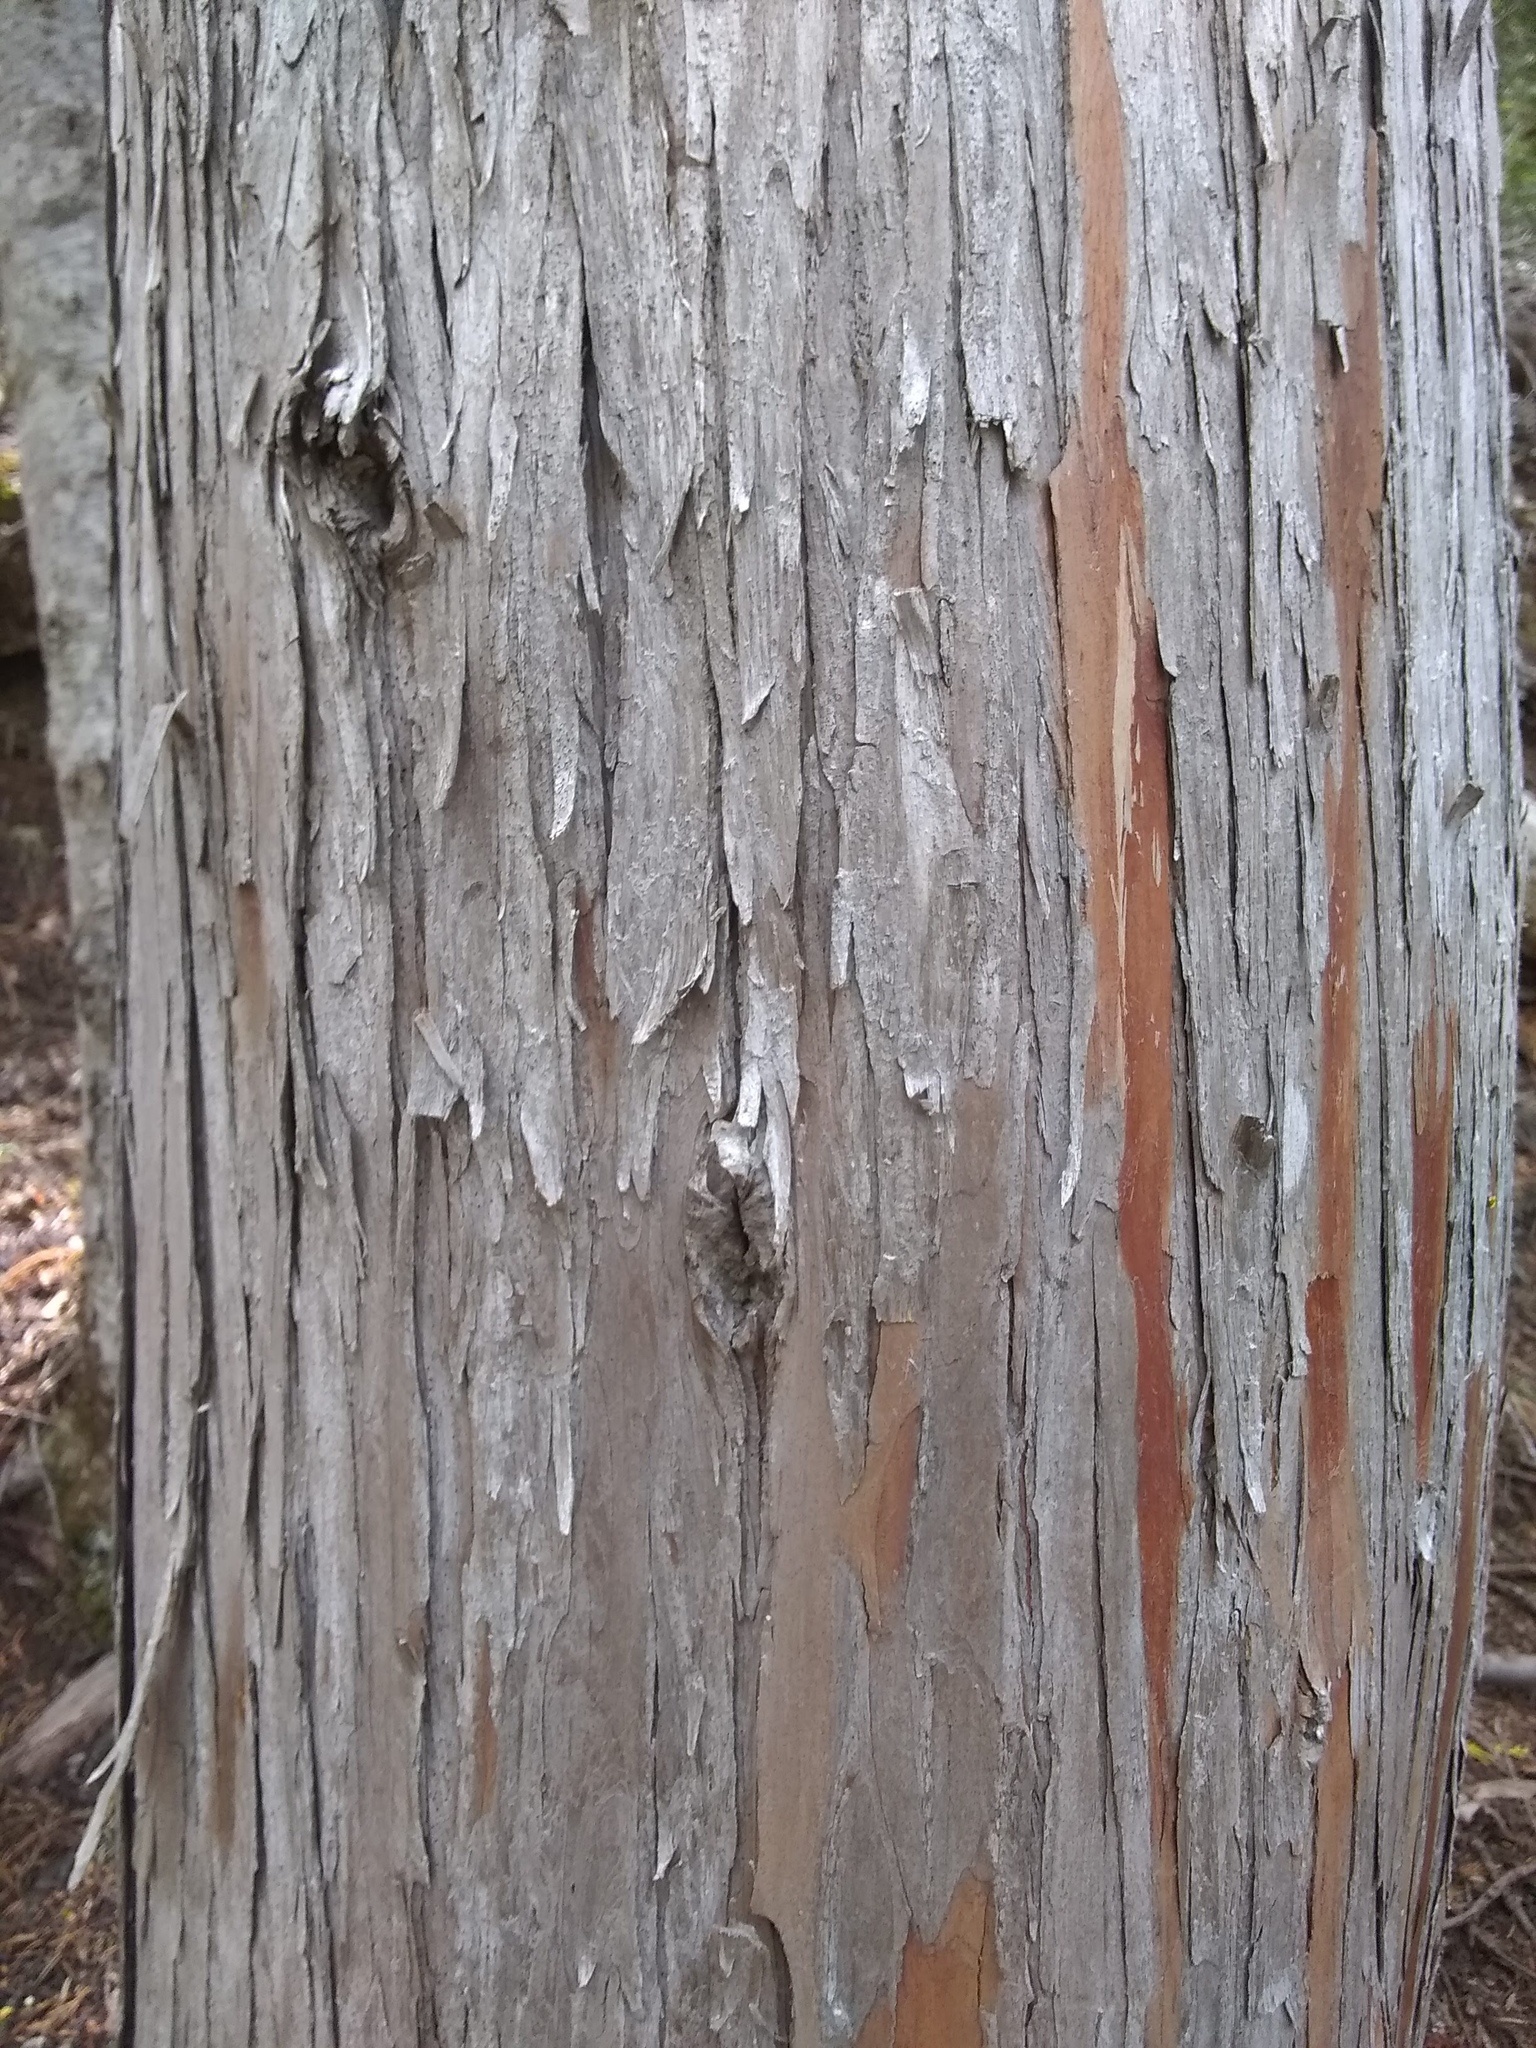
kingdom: Plantae
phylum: Tracheophyta
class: Pinopsida
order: Pinales
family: Cupressaceae
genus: Xanthocyparis
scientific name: Xanthocyparis nootkatensis
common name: Nootka cypress
